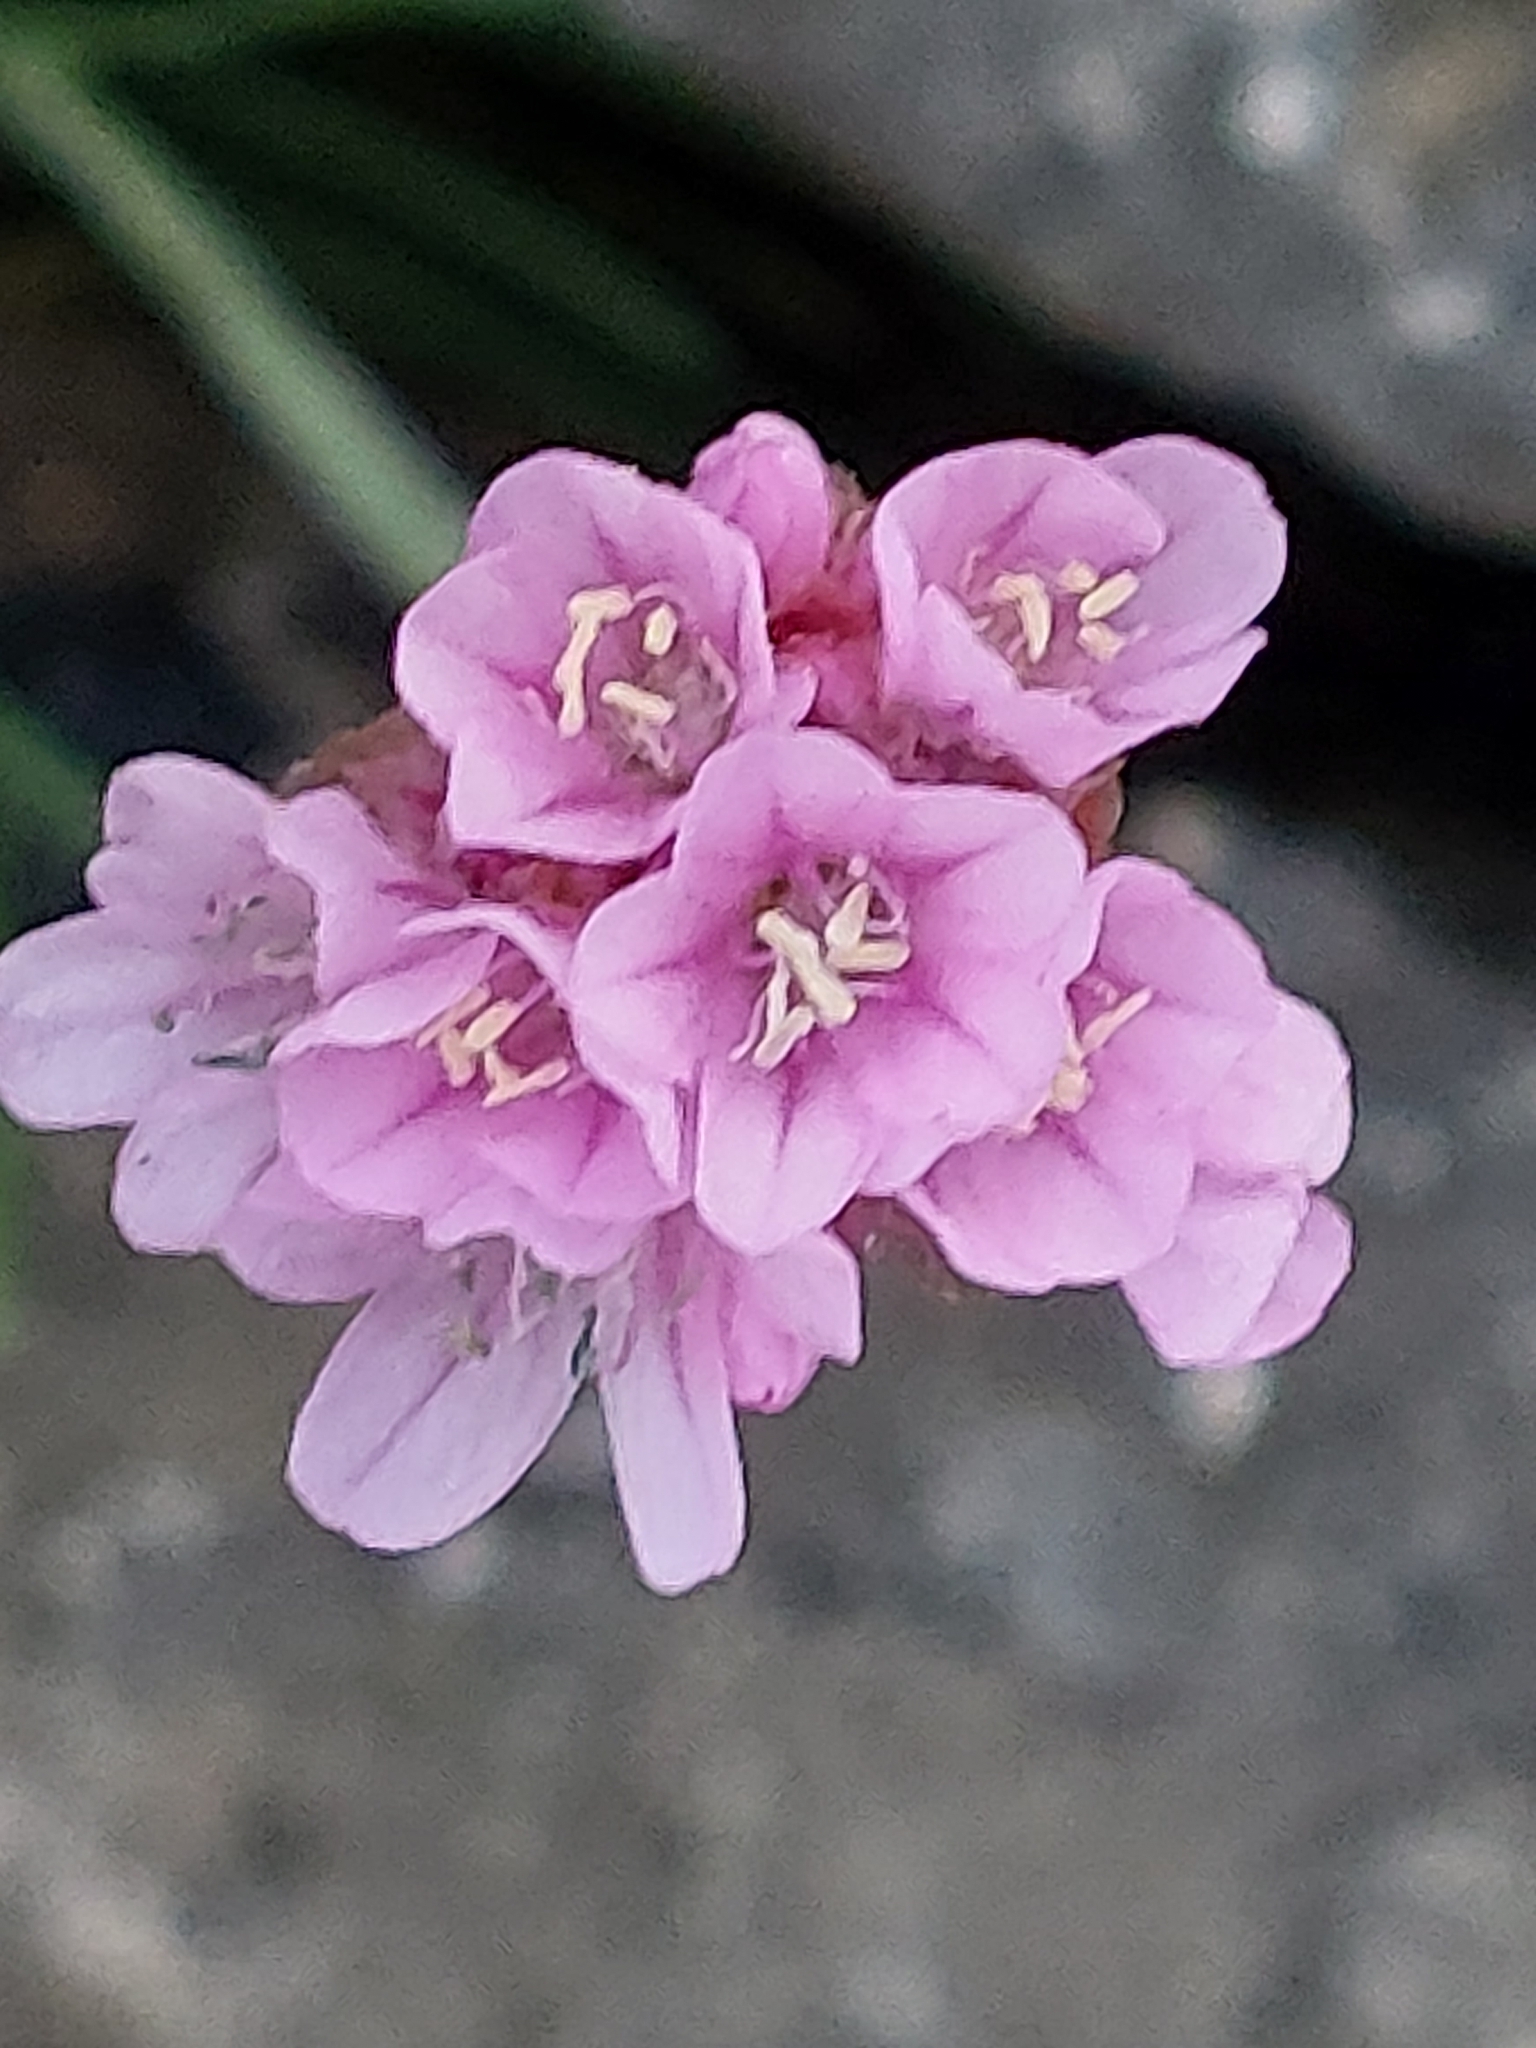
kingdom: Plantae
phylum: Tracheophyta
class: Magnoliopsida
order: Caryophyllales
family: Plumbaginaceae
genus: Armeria
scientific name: Armeria maritima
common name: Thrift
